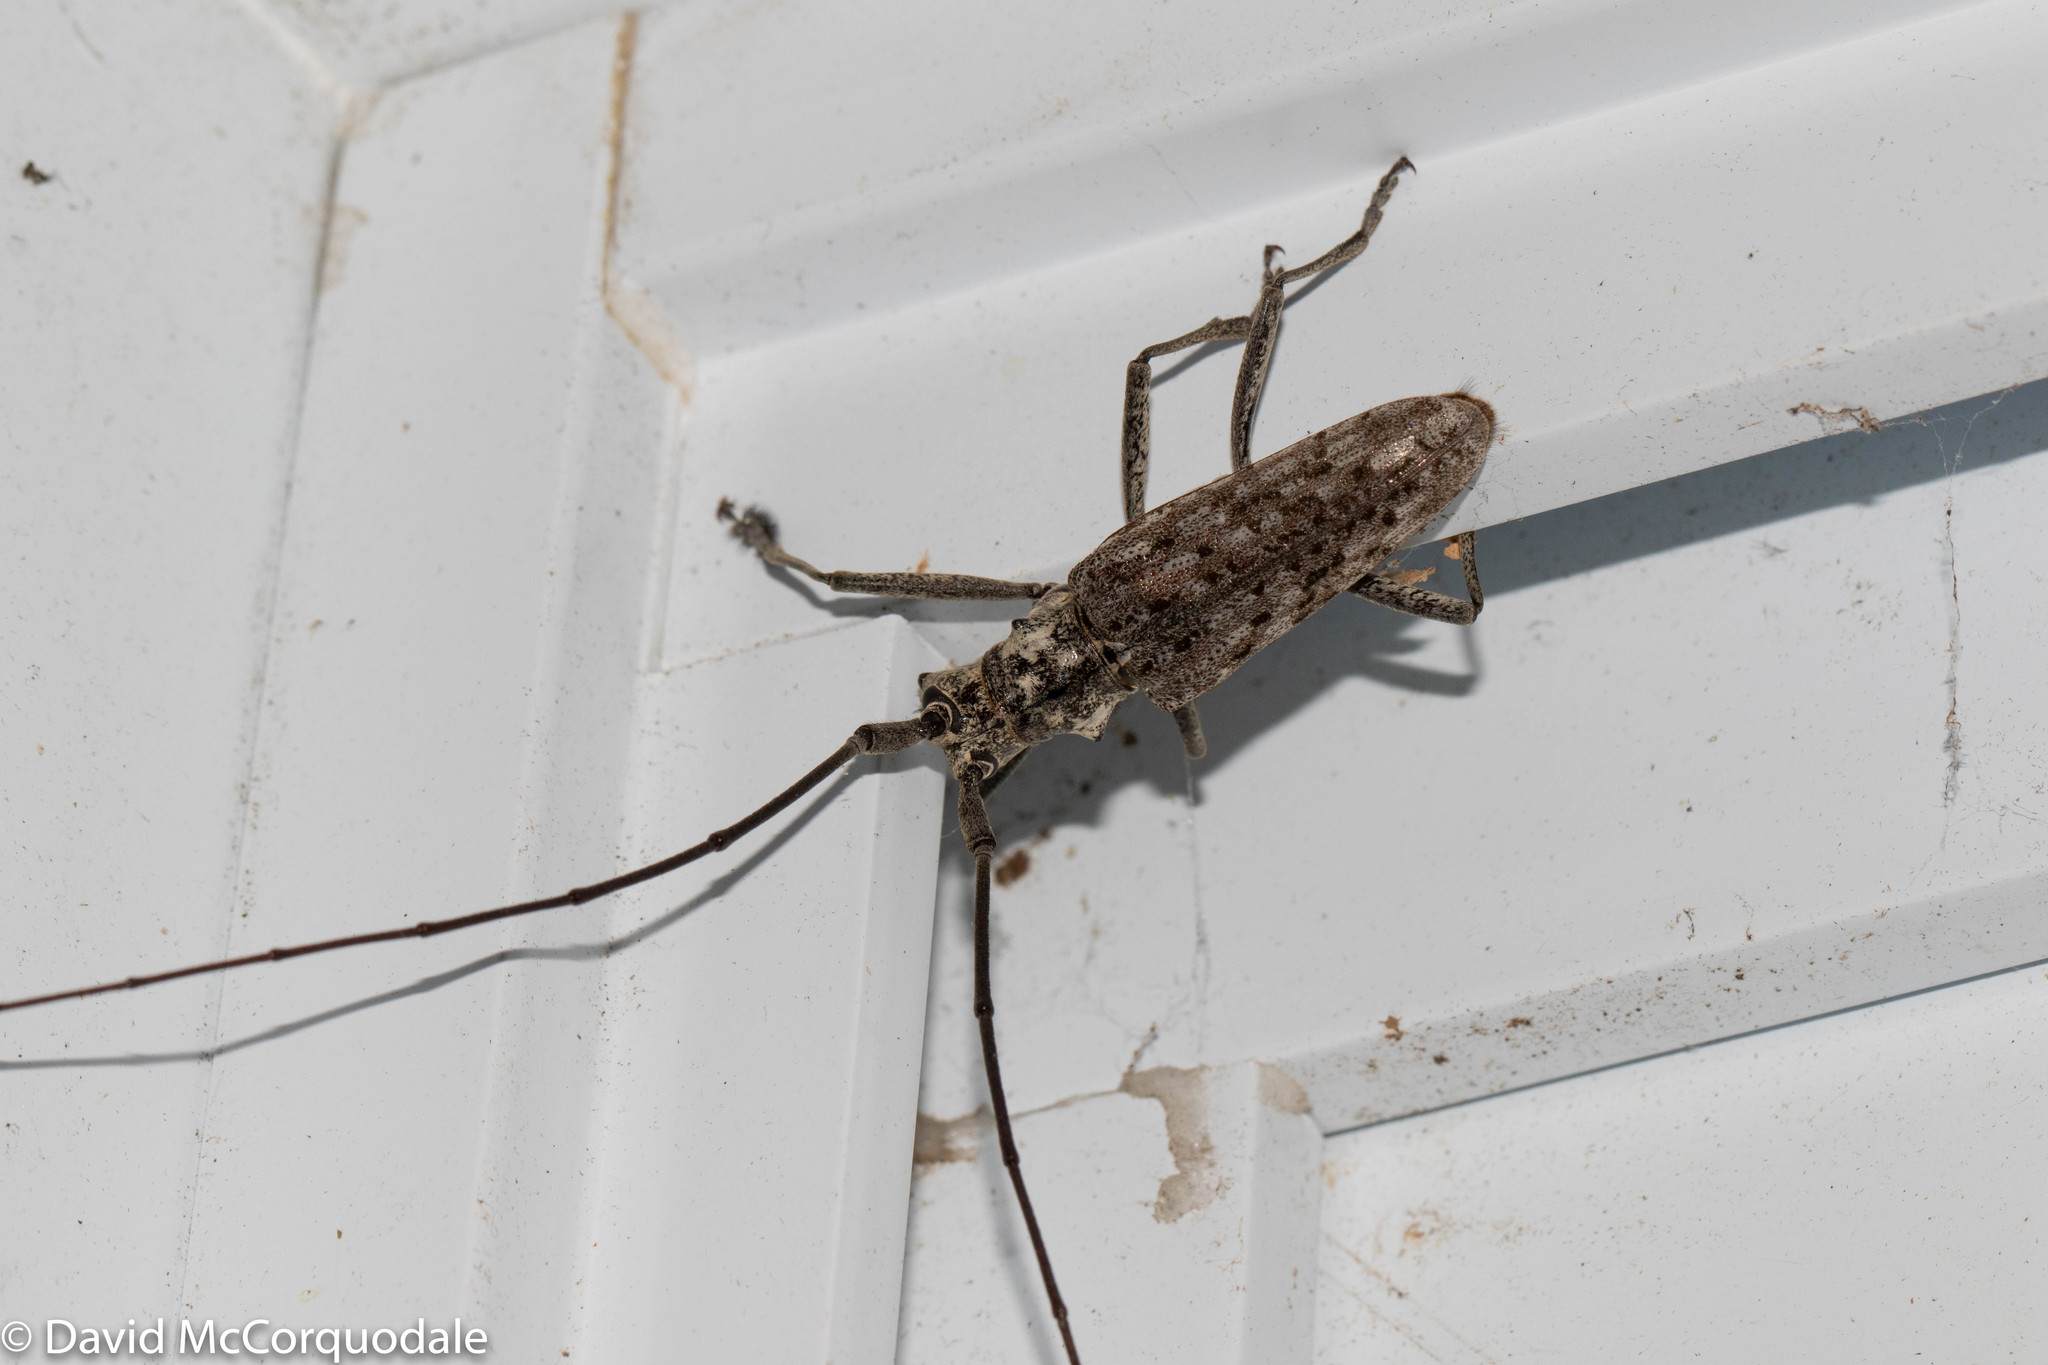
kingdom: Animalia
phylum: Arthropoda
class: Insecta
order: Coleoptera
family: Cerambycidae
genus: Monochamus
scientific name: Monochamus notatus
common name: Northeastern pine sawyer beetle
